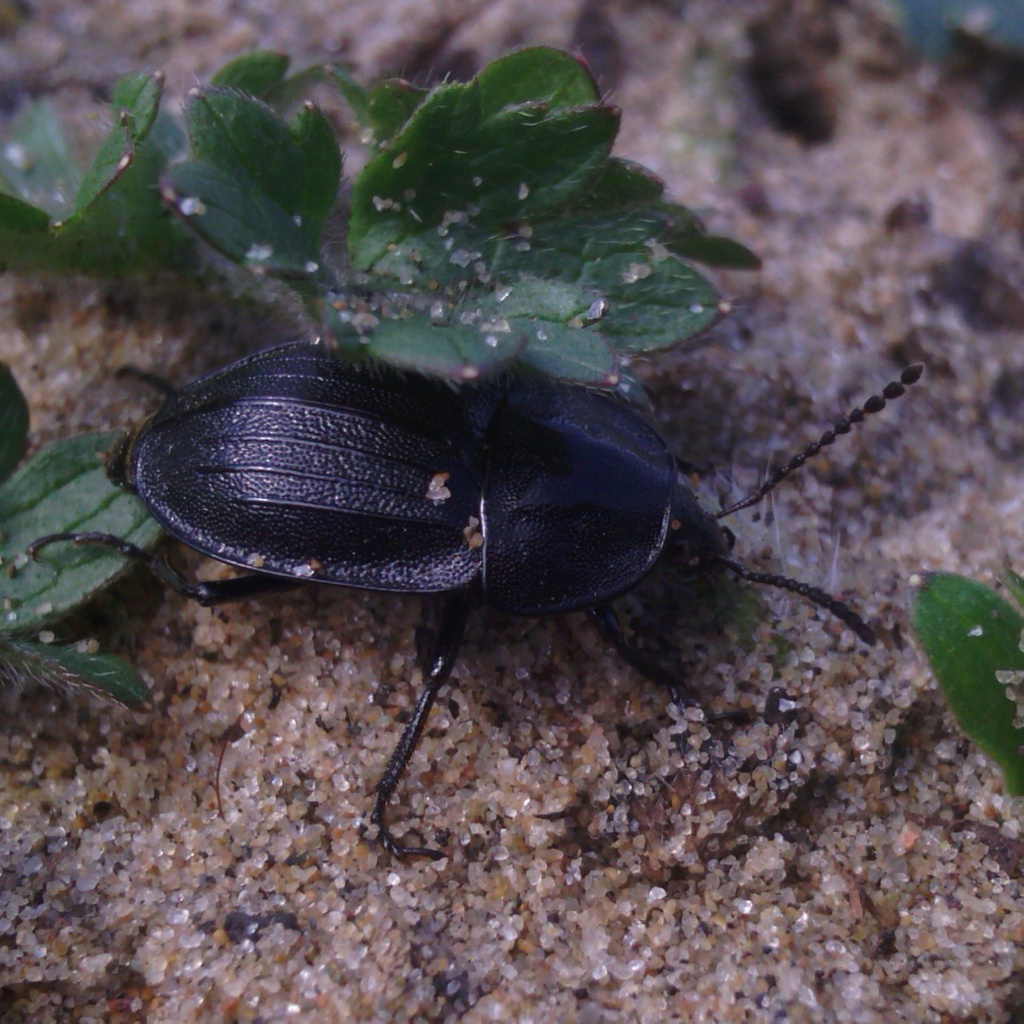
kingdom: Animalia
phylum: Arthropoda
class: Insecta
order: Coleoptera
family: Staphylinidae
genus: Silpha
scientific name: Silpha atrata
